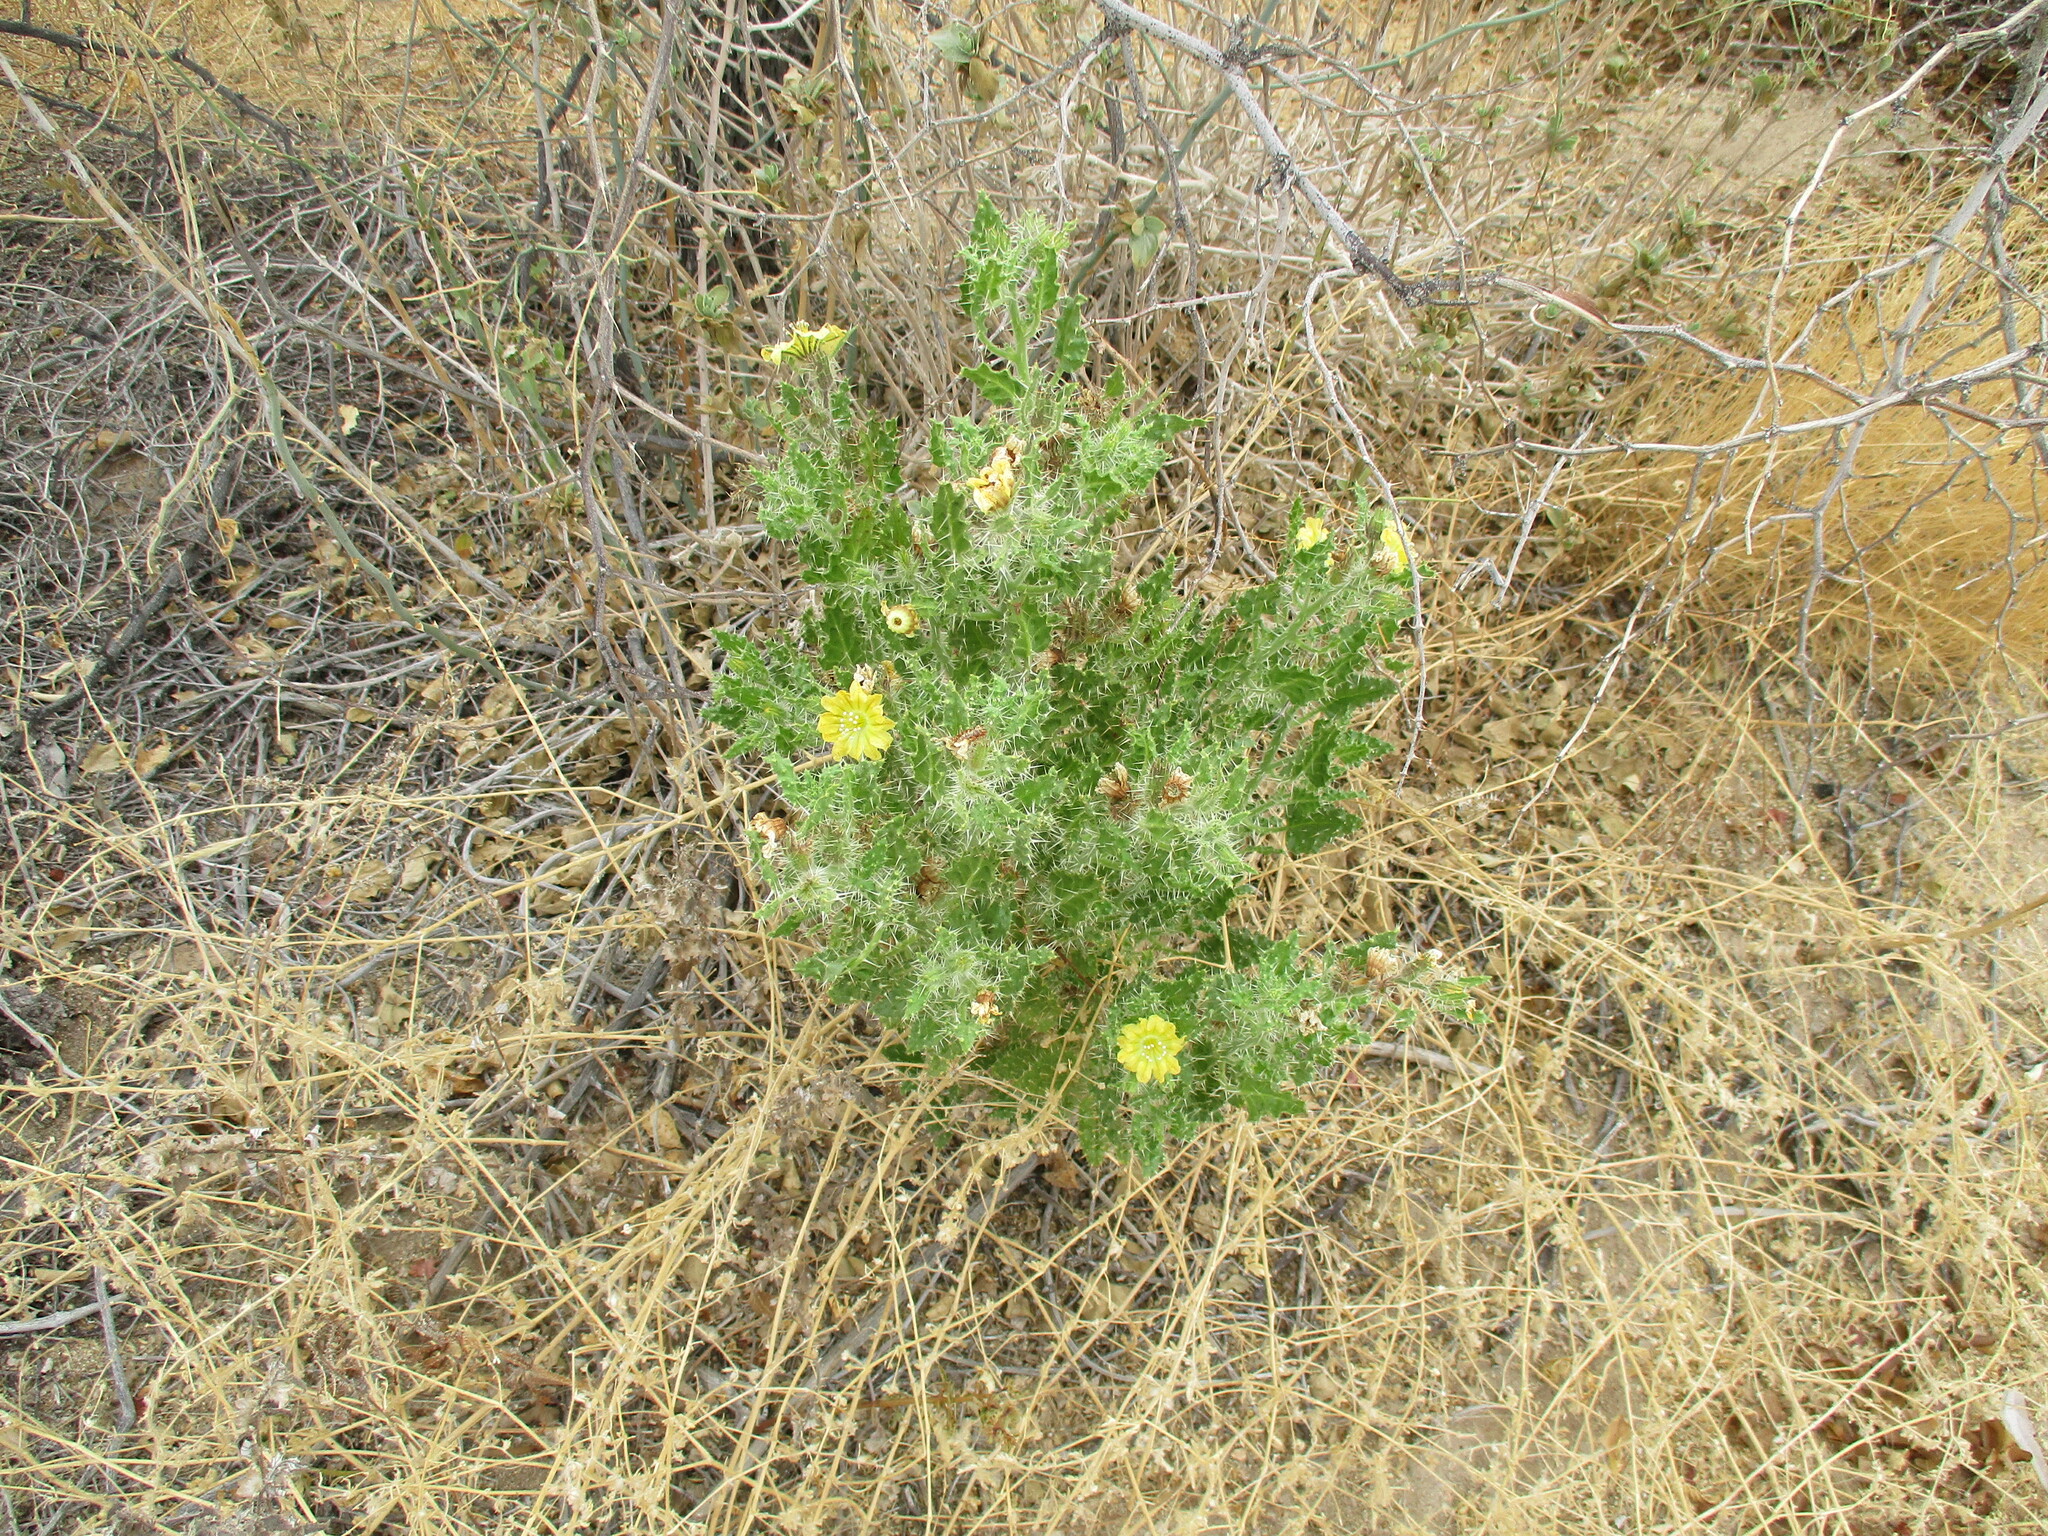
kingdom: Plantae
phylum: Tracheophyta
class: Magnoliopsida
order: Boraginales
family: Codonaceae
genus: Codon
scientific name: Codon schenckii
